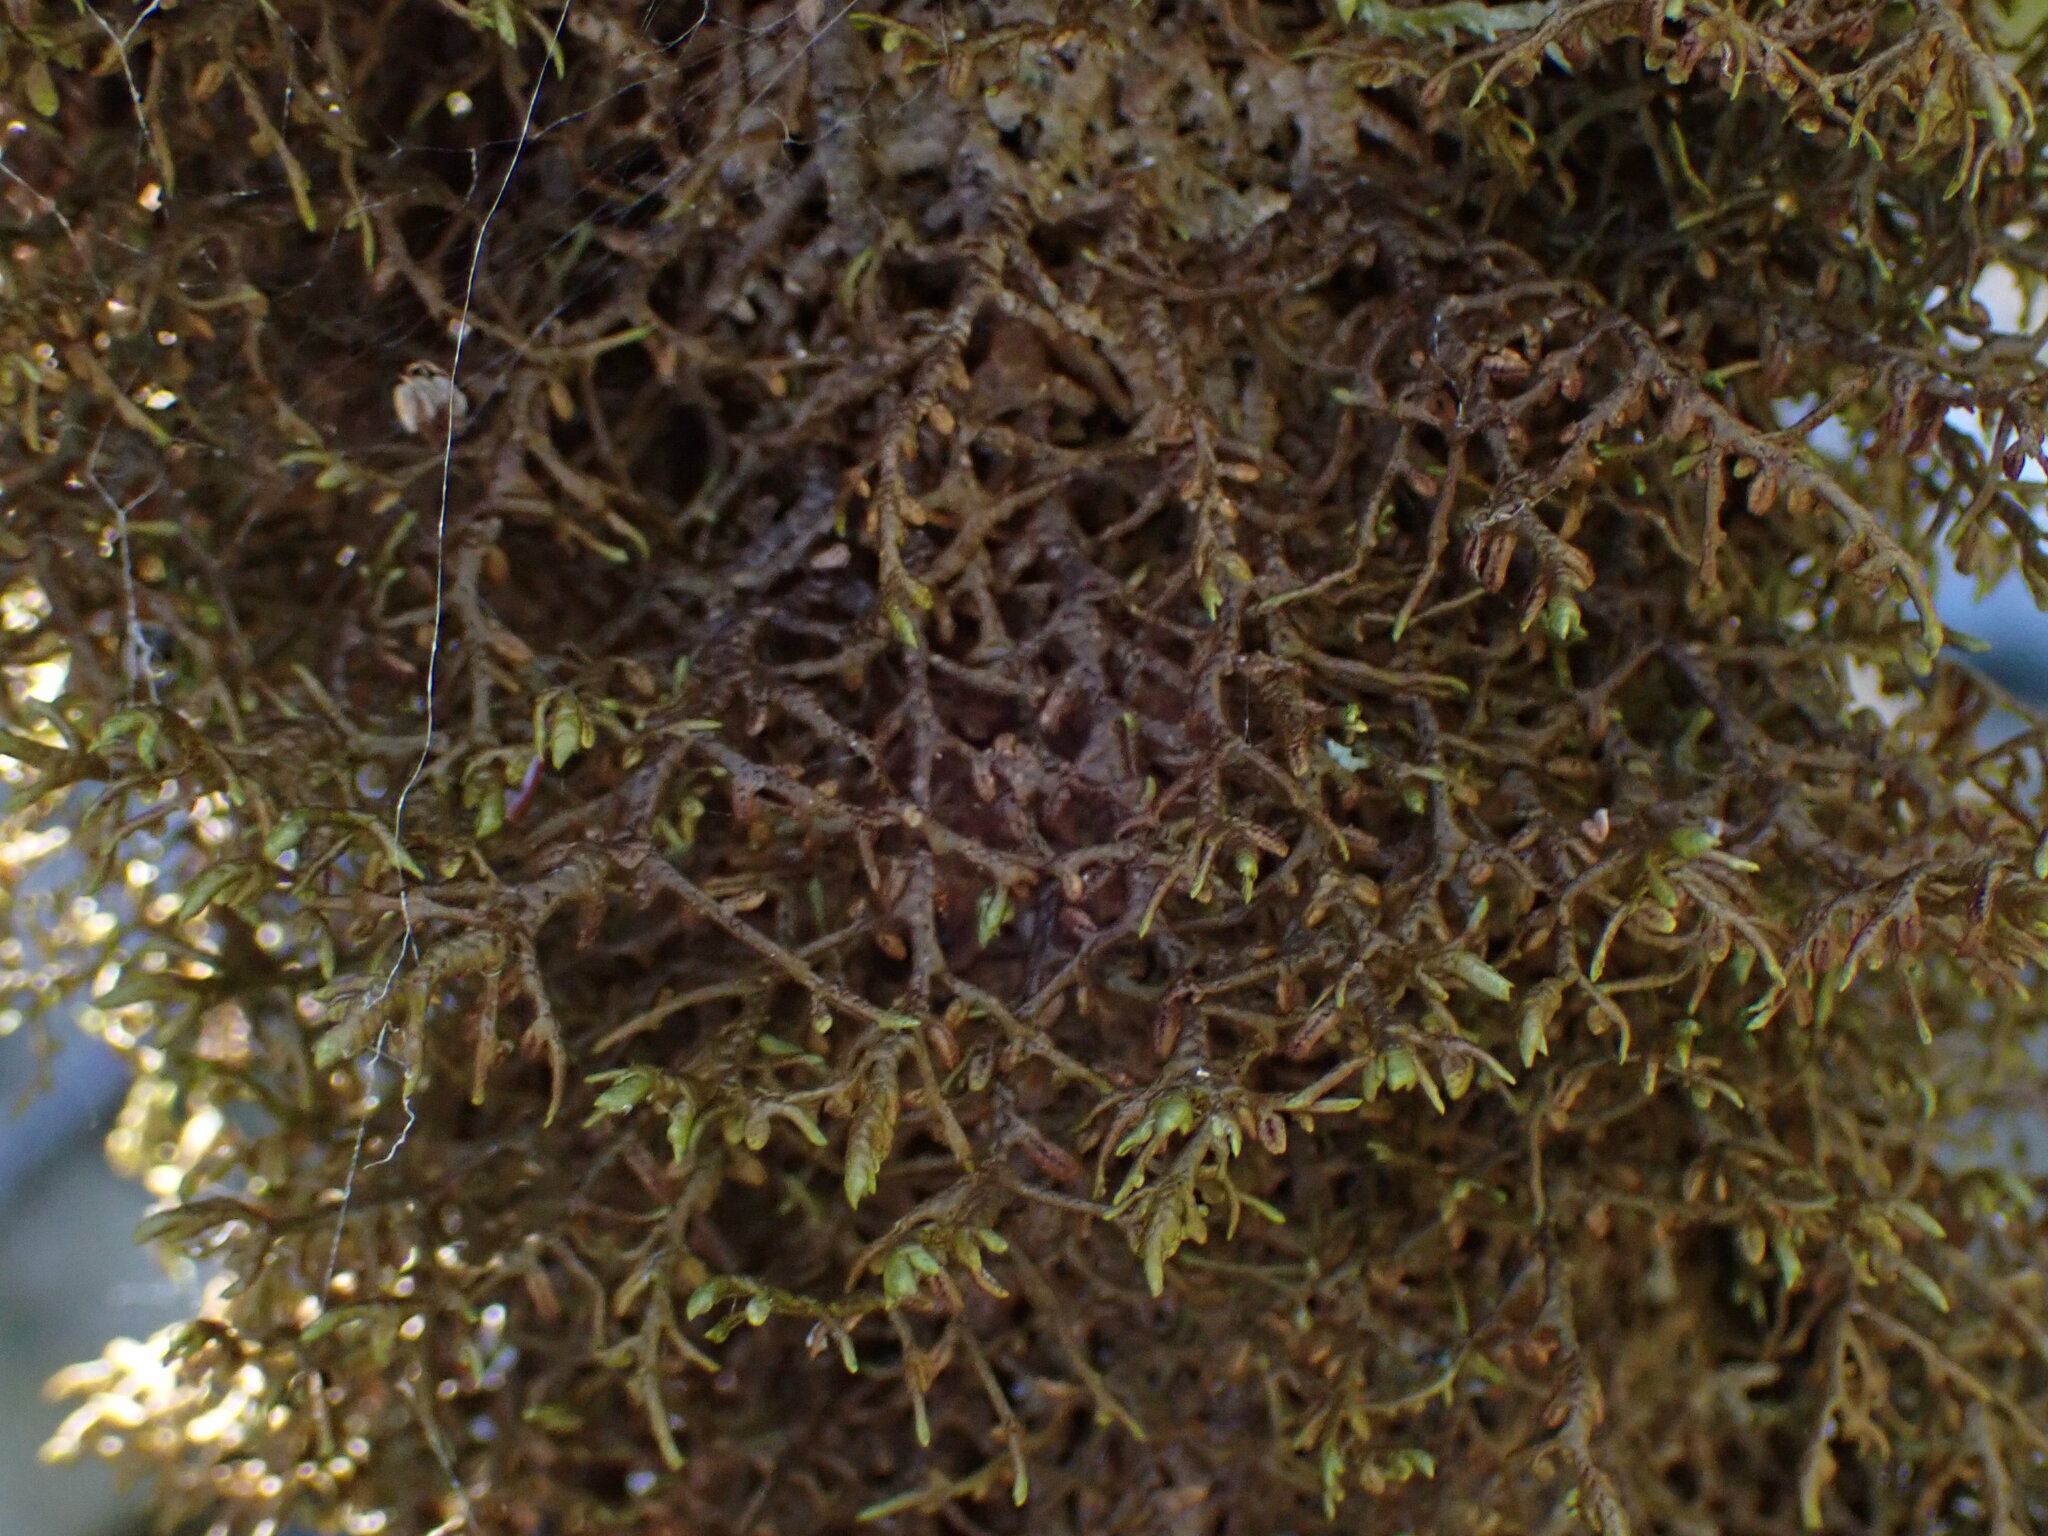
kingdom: Plantae
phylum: Marchantiophyta
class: Jungermanniopsida
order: Porellales
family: Porellaceae
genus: Porella
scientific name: Porella navicularis
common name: Tree ruffle liverwort
